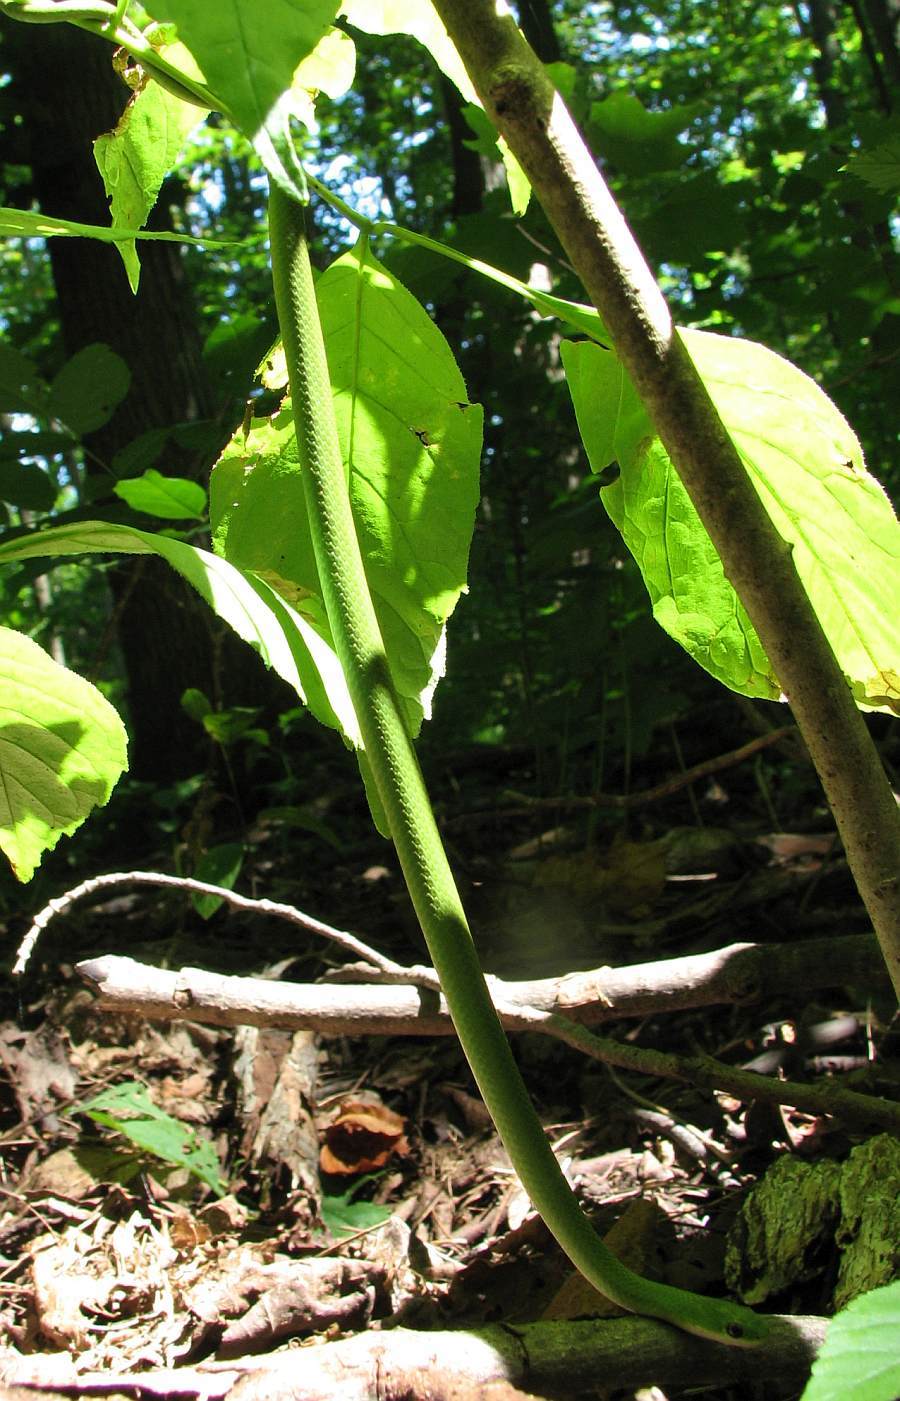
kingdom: Animalia
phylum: Chordata
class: Squamata
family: Colubridae
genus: Opheodrys
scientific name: Opheodrys vernalis
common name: Smooth green snake
